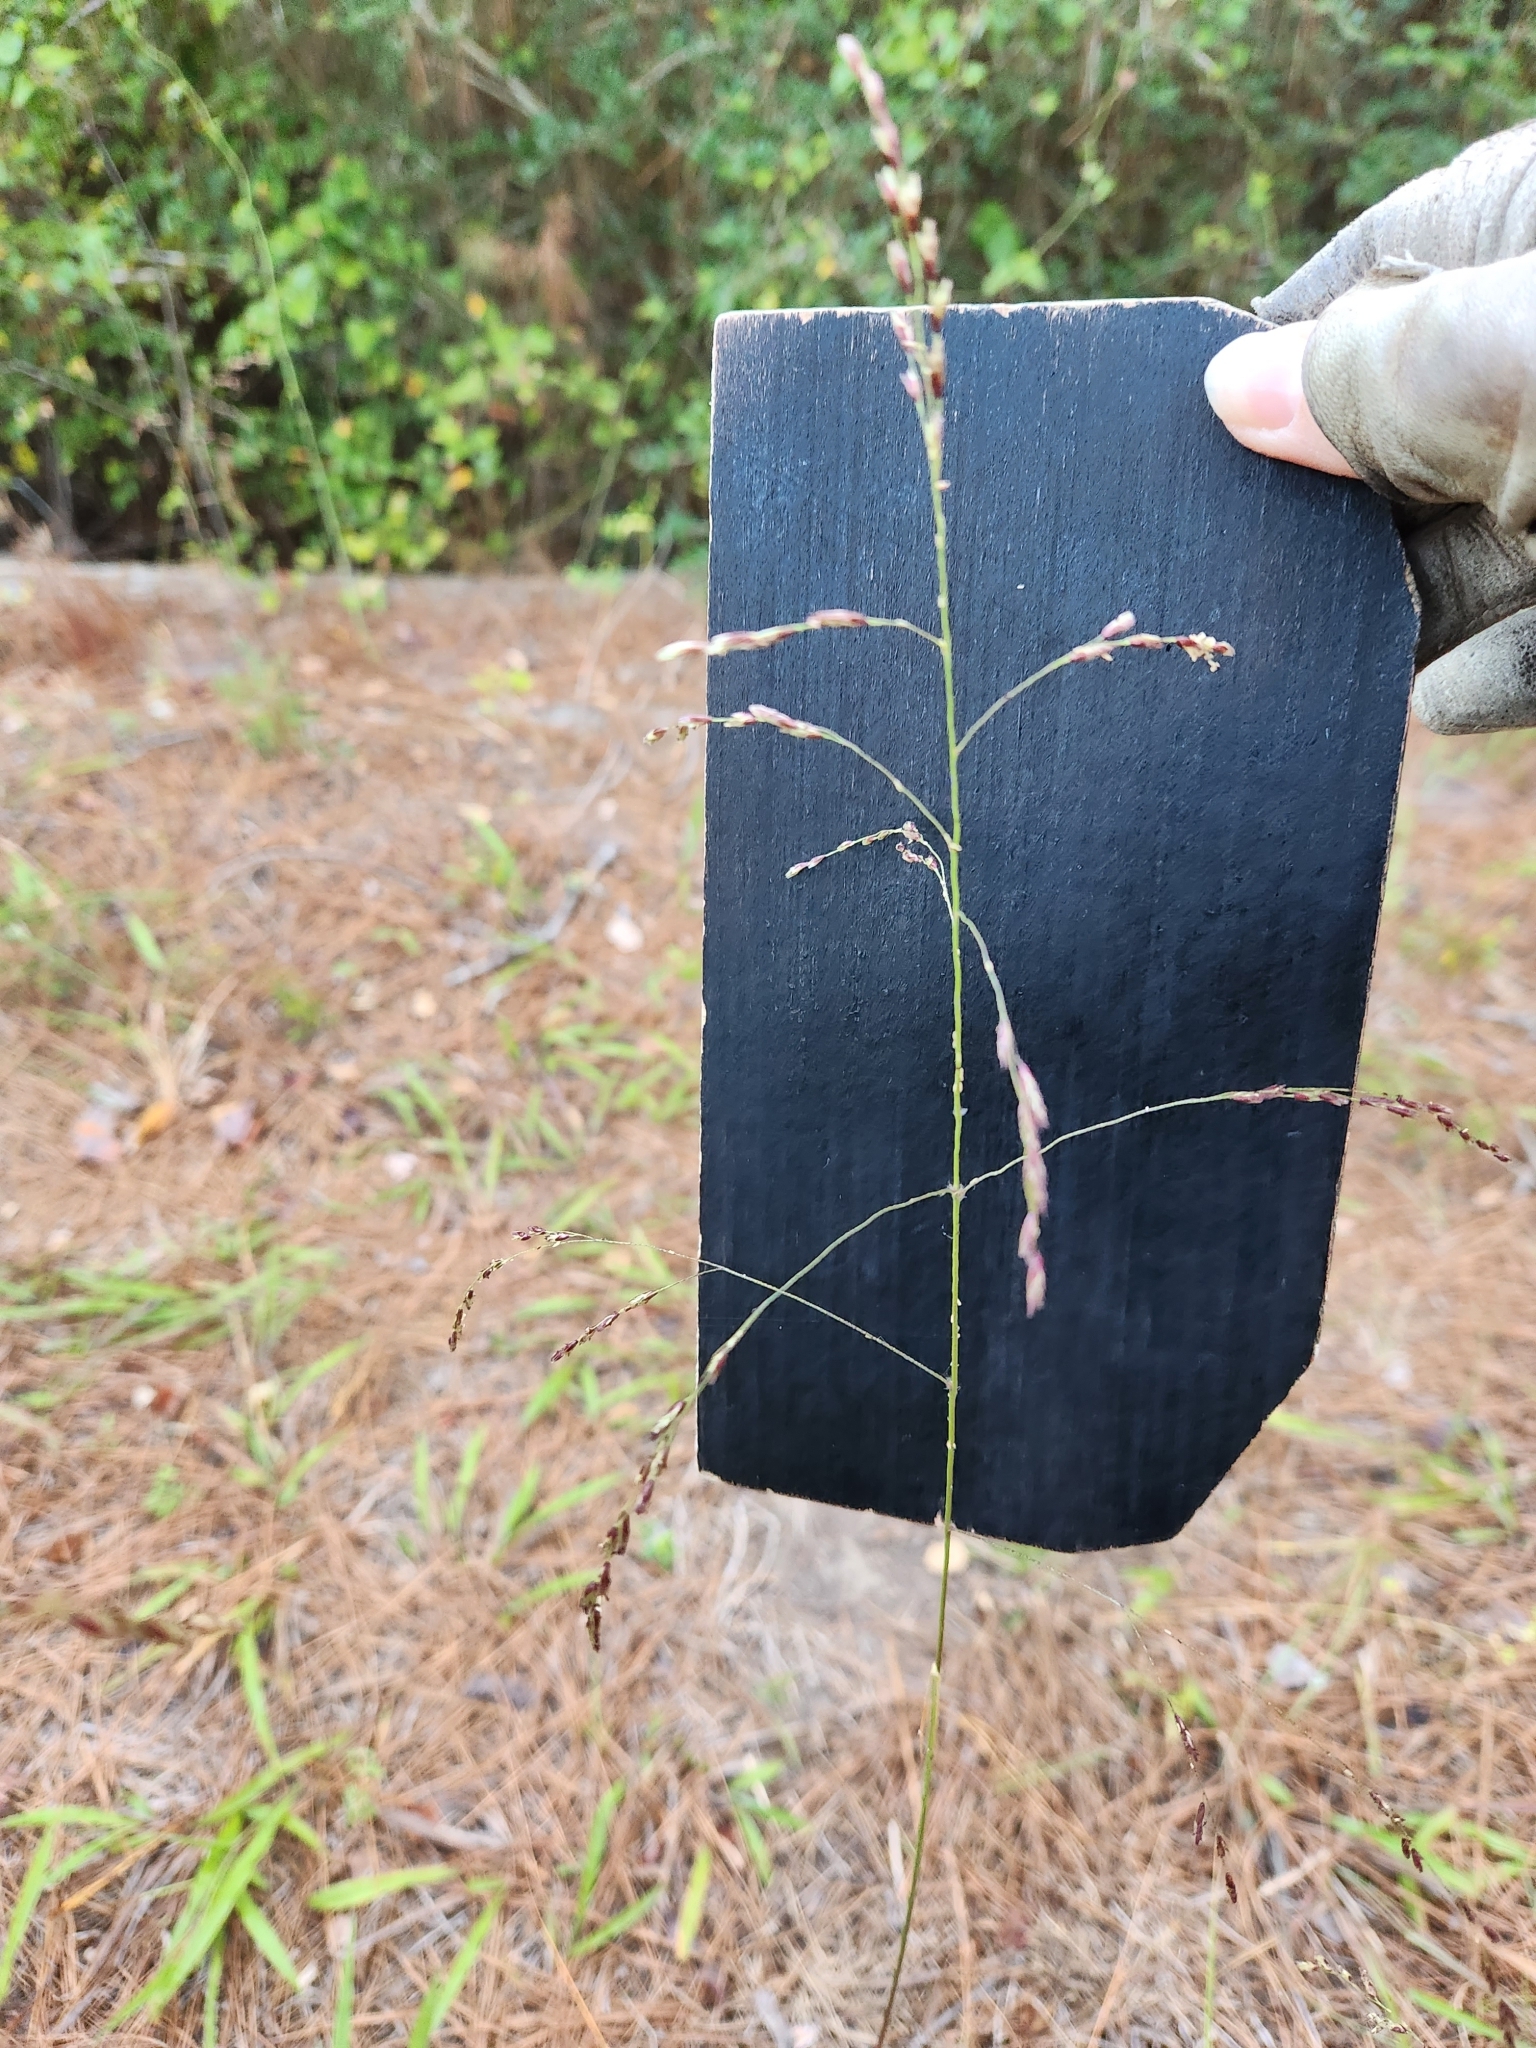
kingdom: Plantae
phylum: Tracheophyta
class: Liliopsida
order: Poales
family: Poaceae
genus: Tridens
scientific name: Tridens chapmanii
